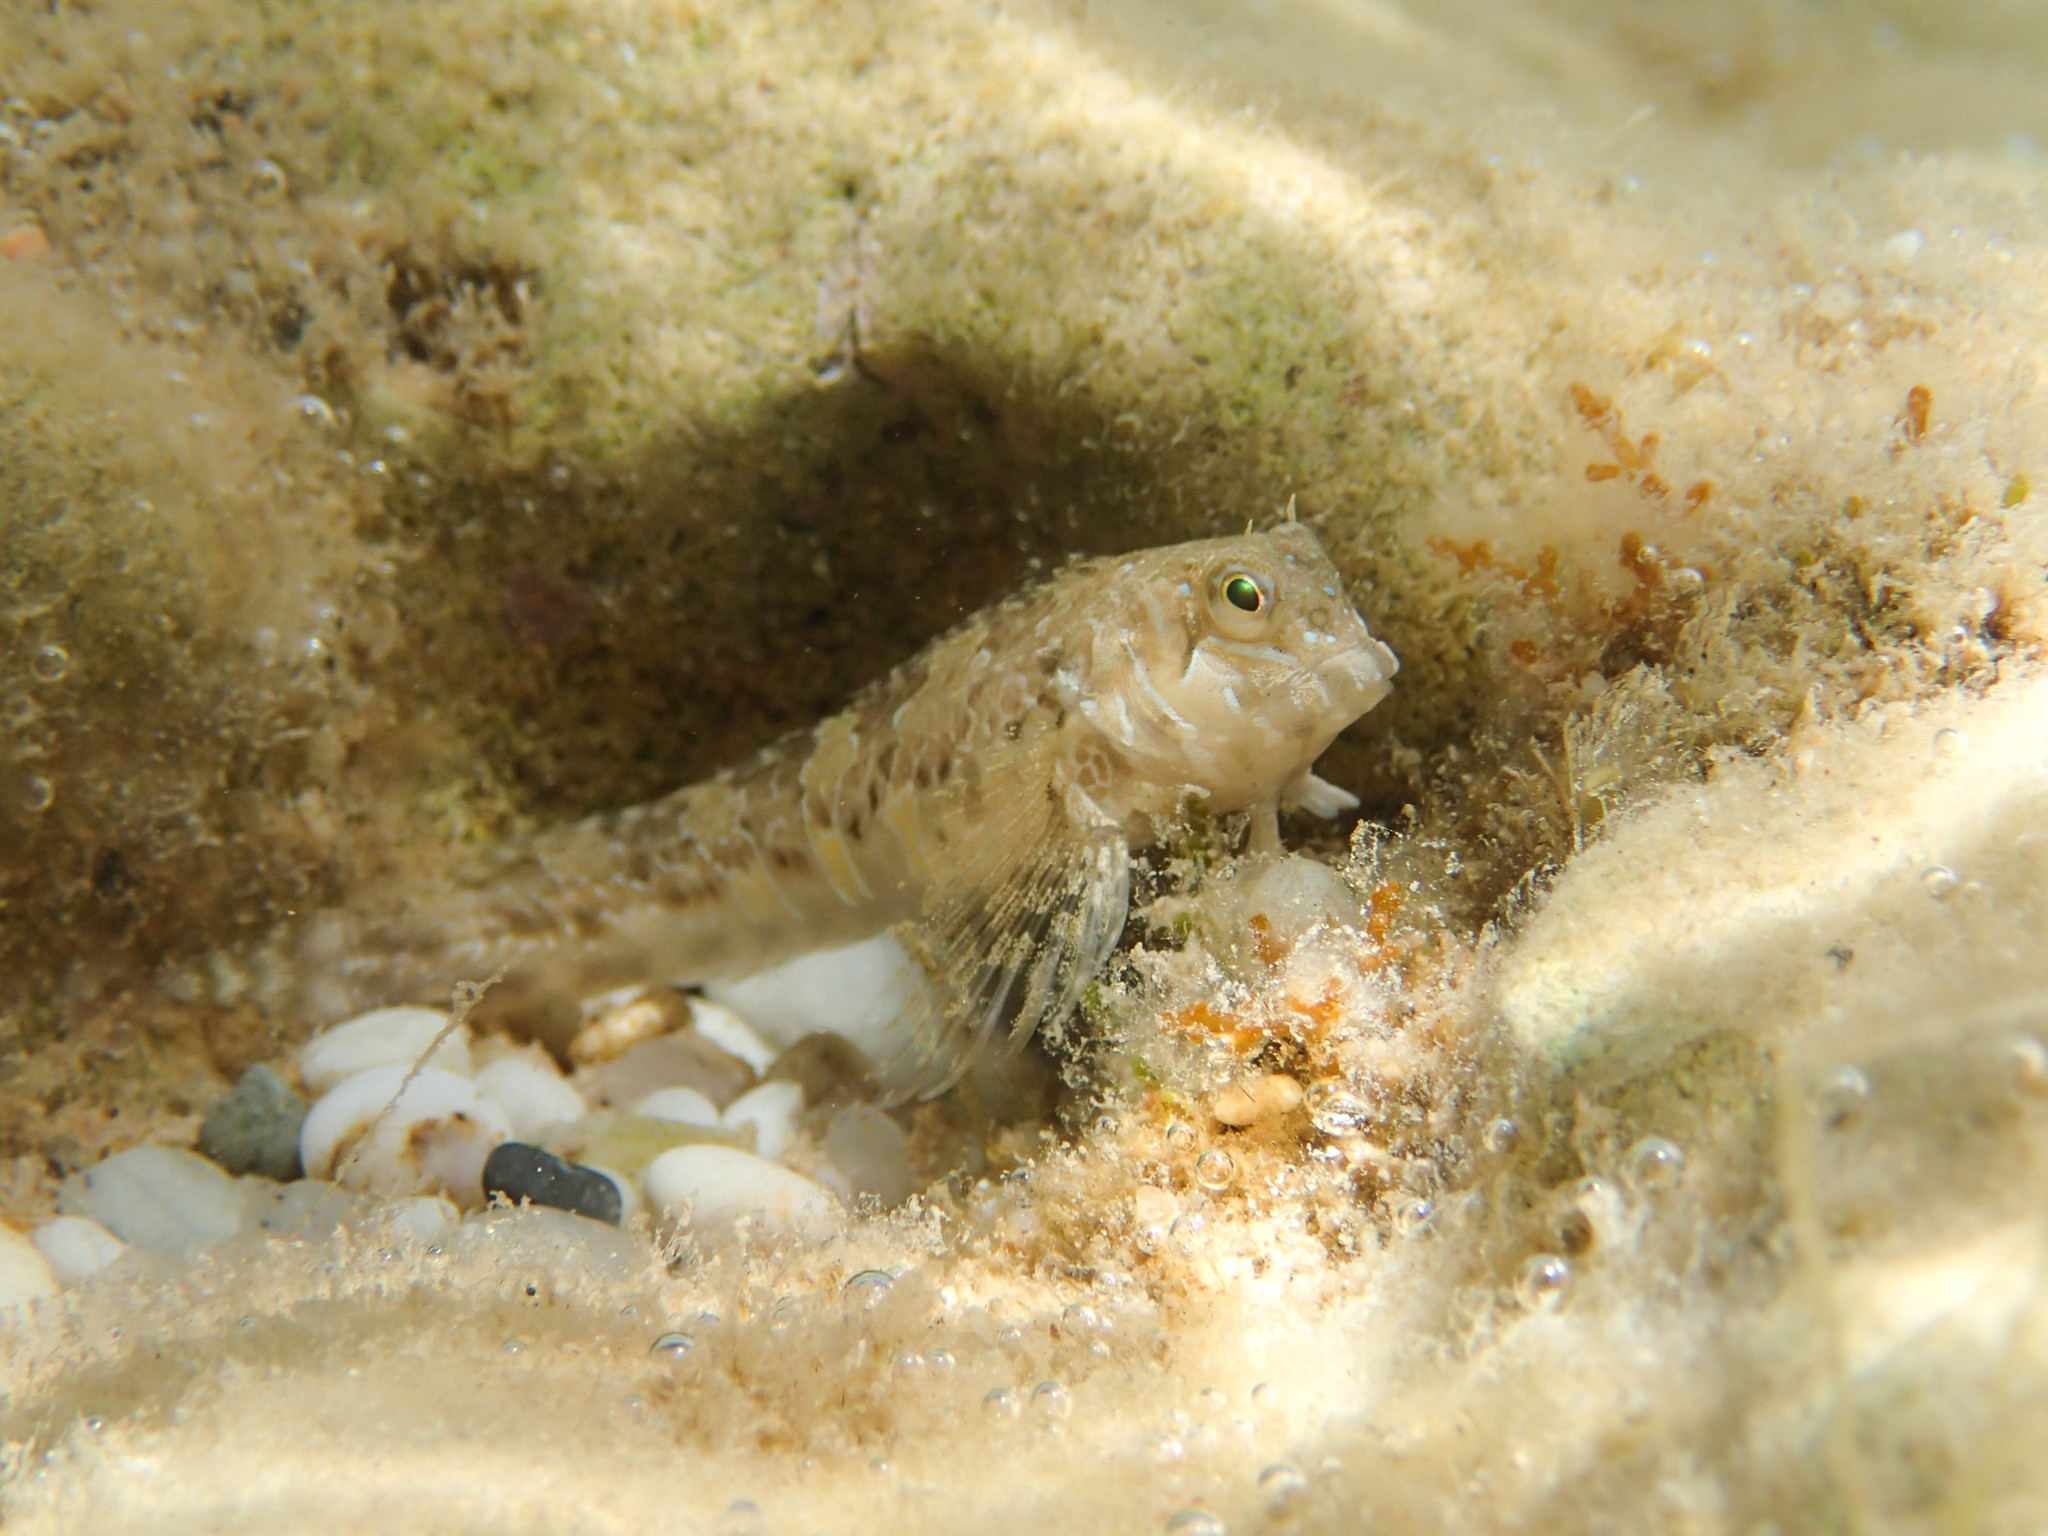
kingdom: Animalia
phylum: Chordata
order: Perciformes
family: Blenniidae
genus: Aidablennius
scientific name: Aidablennius sphynx
